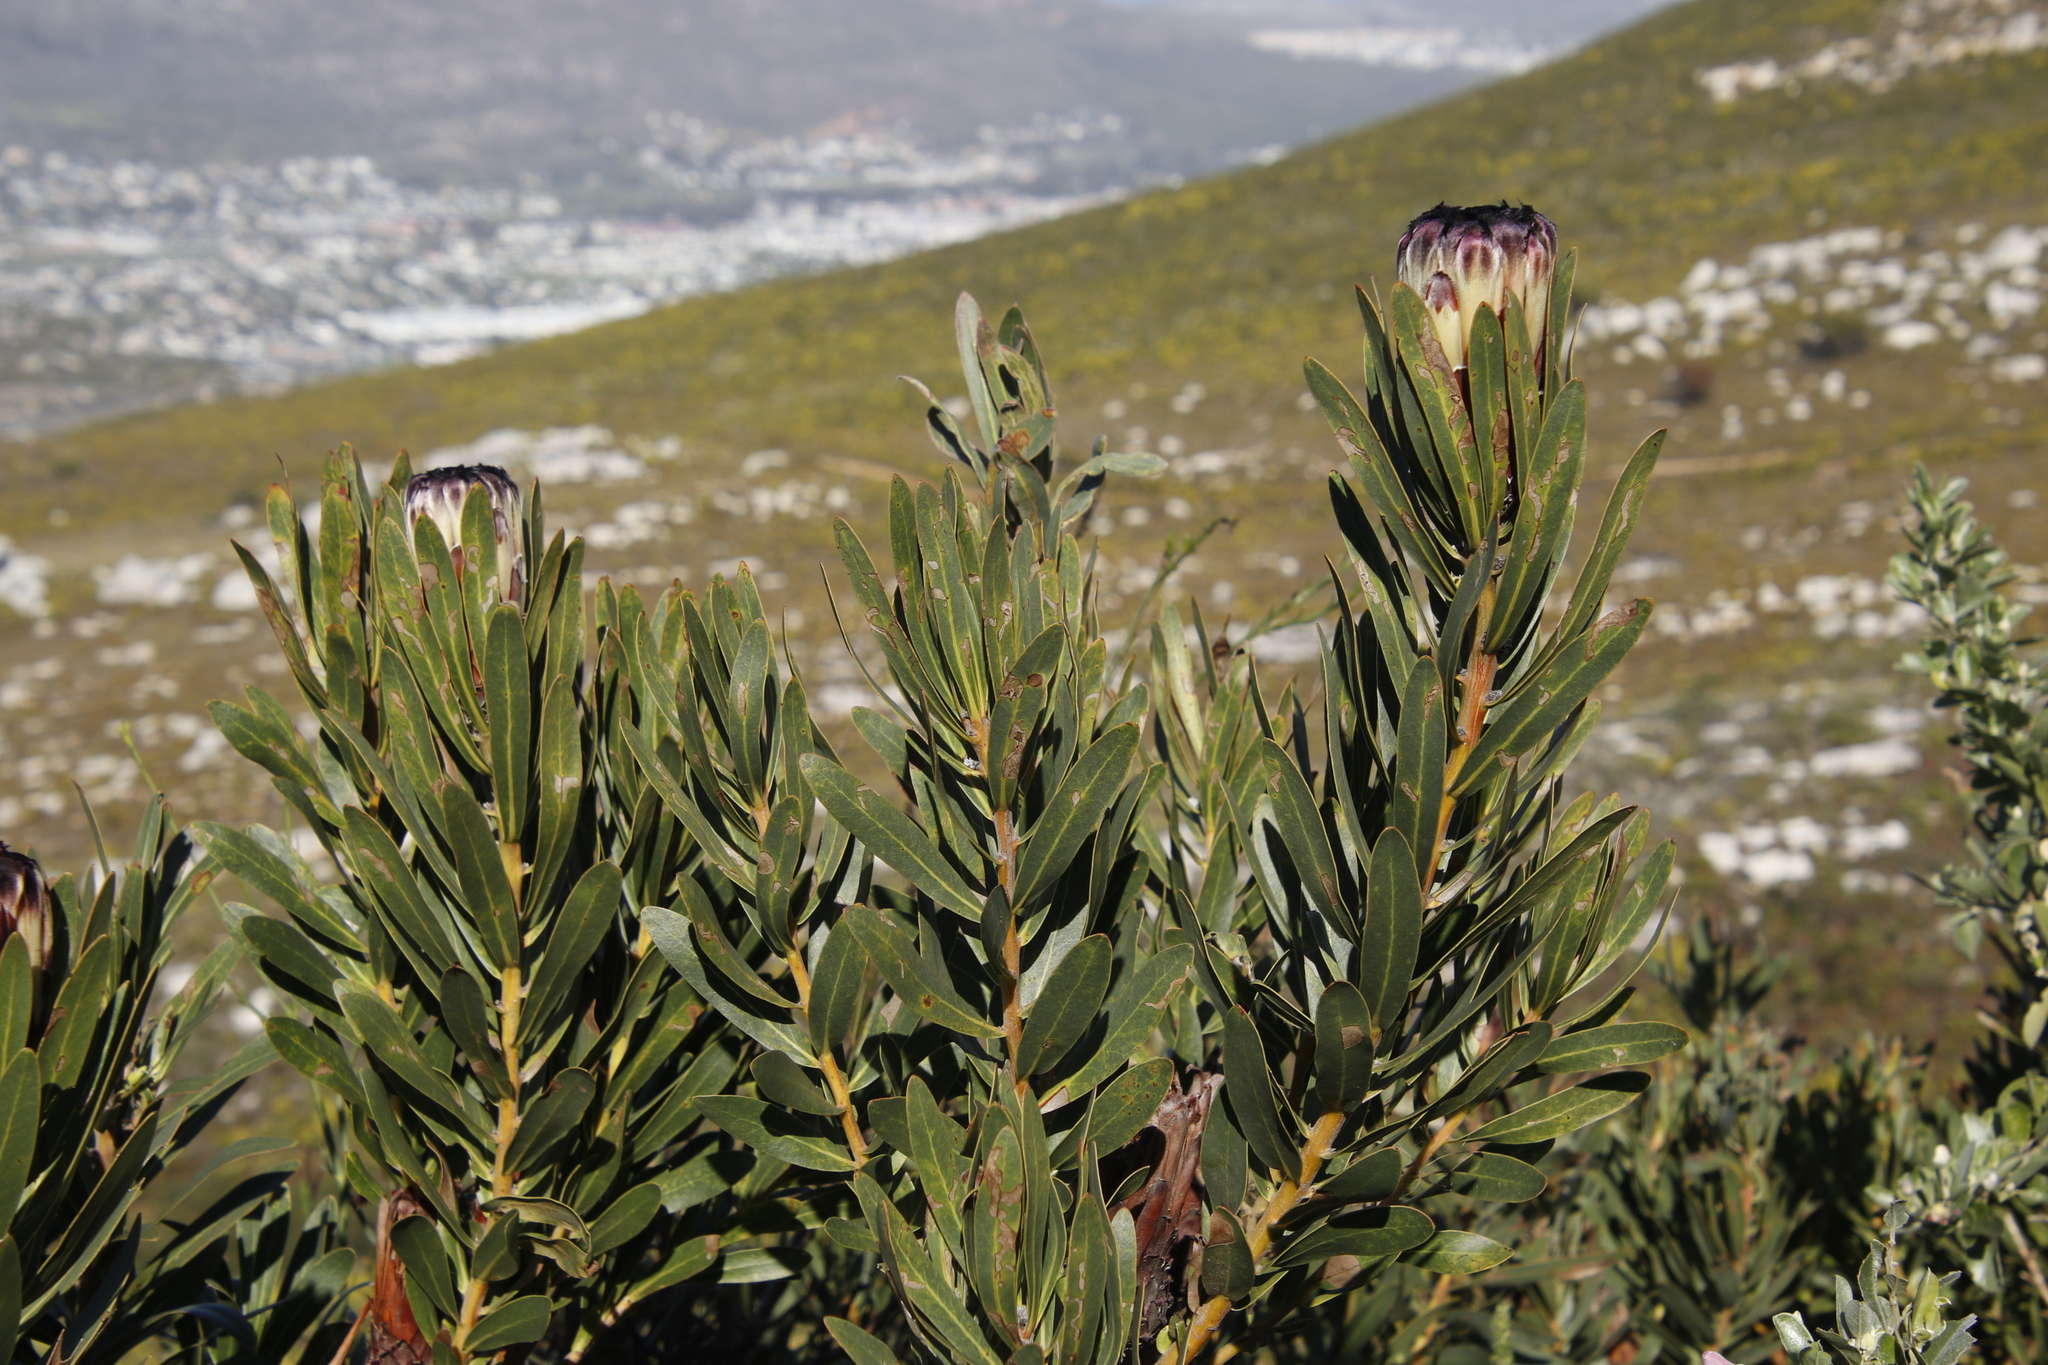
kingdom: Plantae
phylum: Tracheophyta
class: Magnoliopsida
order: Proteales
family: Proteaceae
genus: Protea
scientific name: Protea lepidocarpodendron
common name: Black-bearded protea
